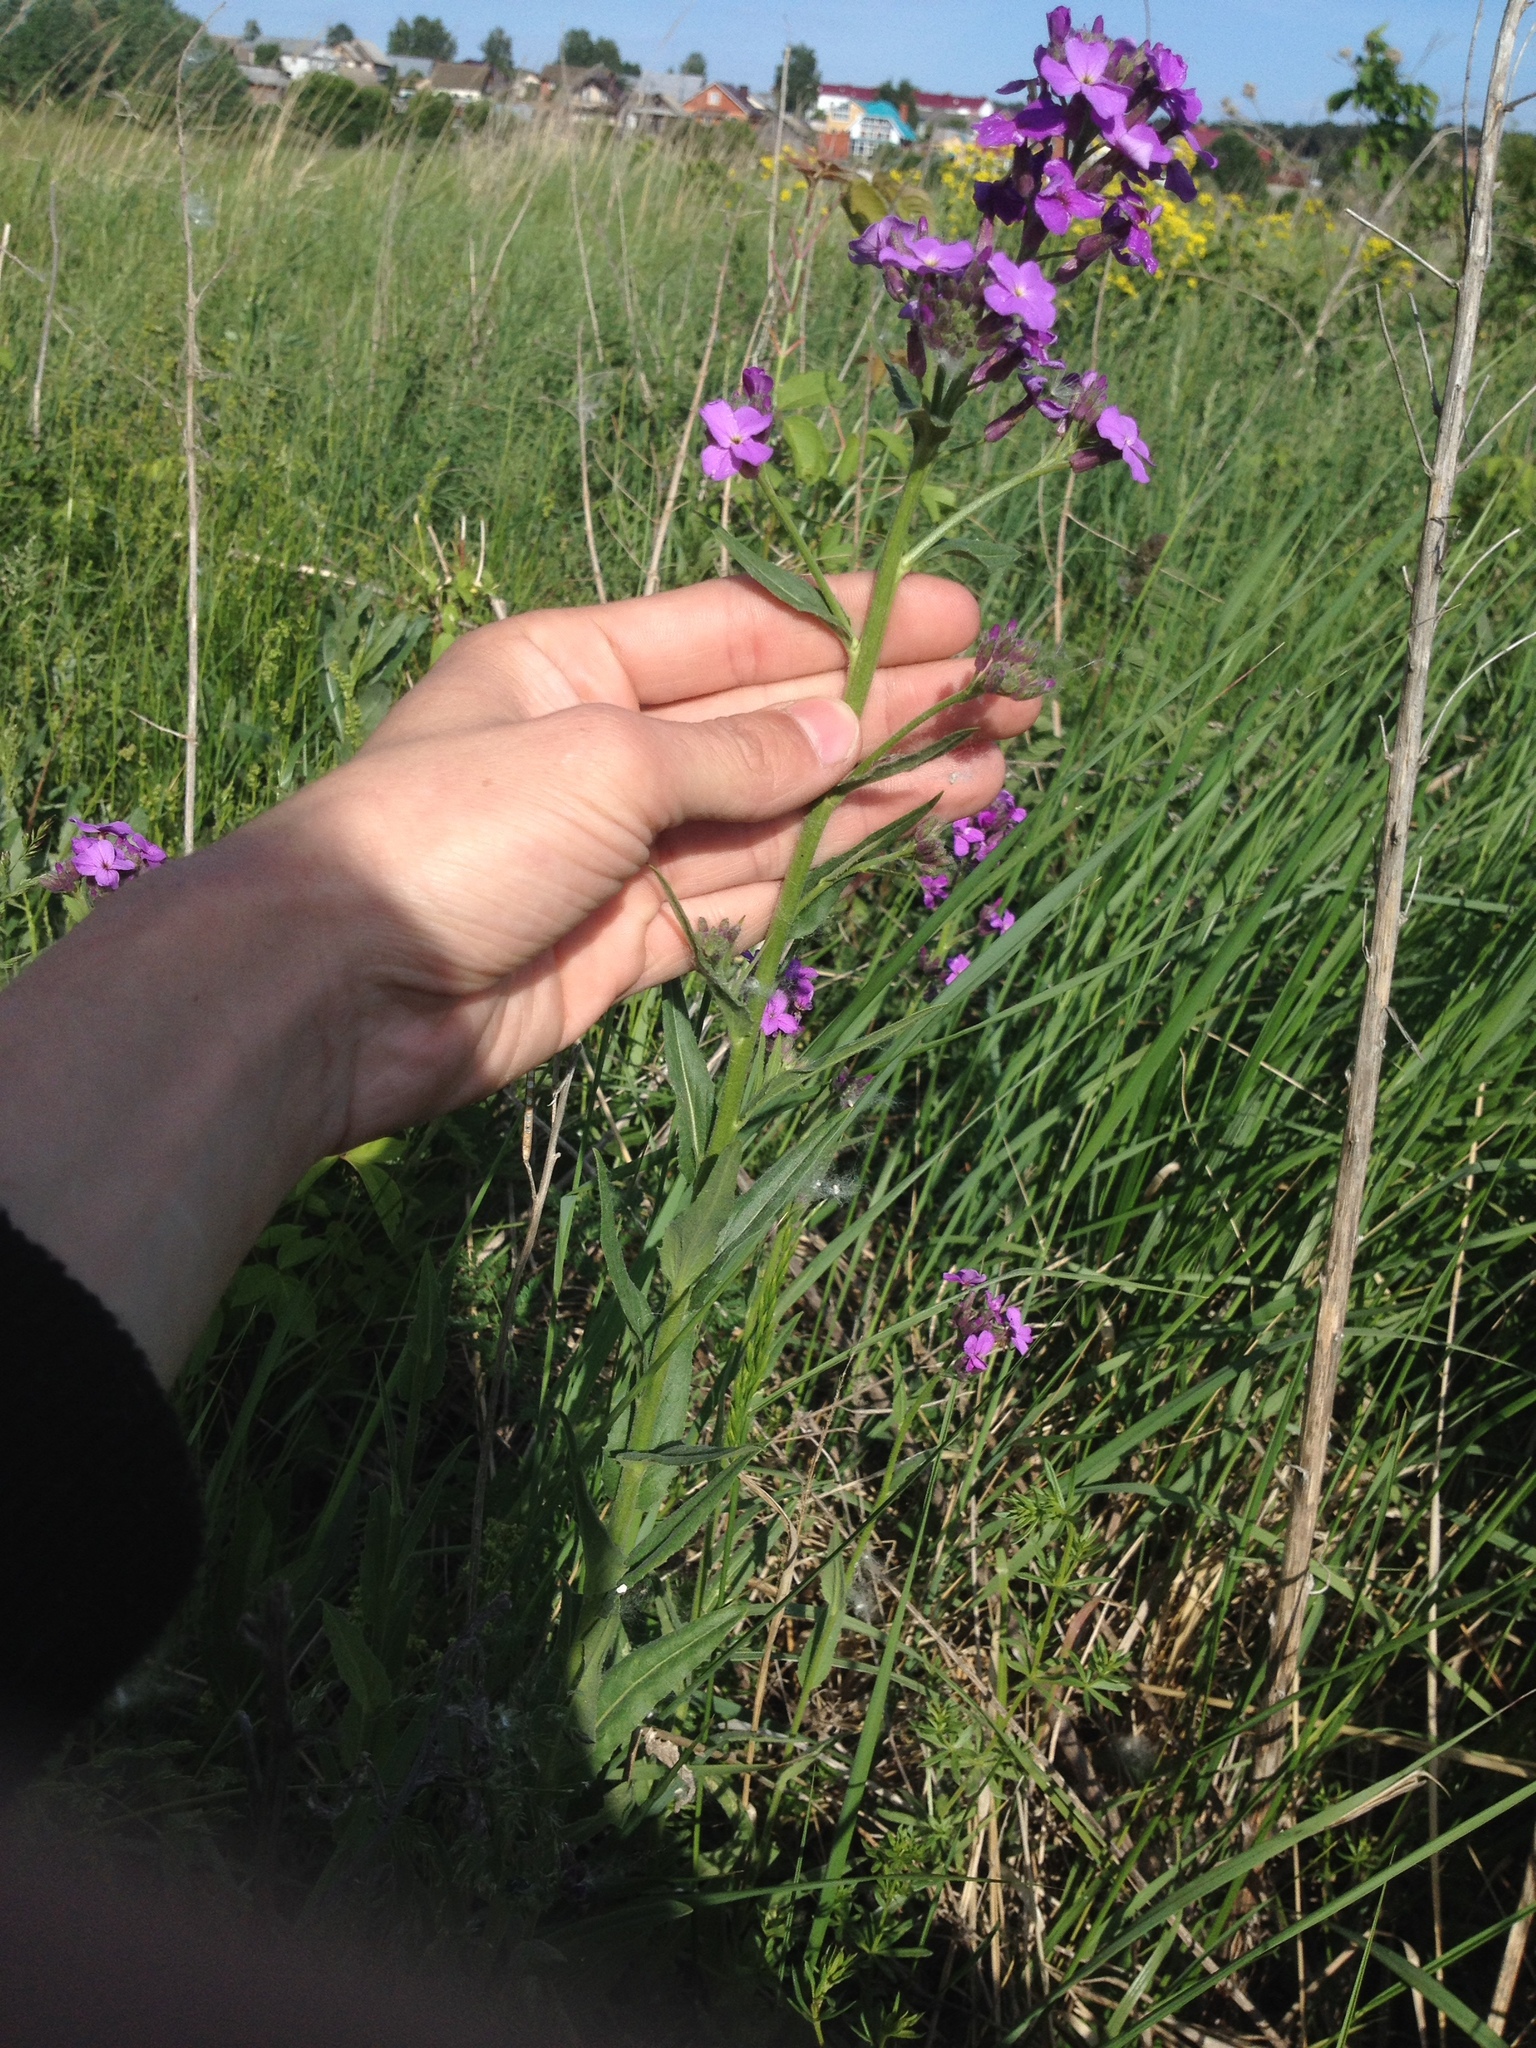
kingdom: Plantae
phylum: Tracheophyta
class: Magnoliopsida
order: Brassicales
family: Brassicaceae
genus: Hesperis
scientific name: Hesperis matronalis
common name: Dame's-violet
